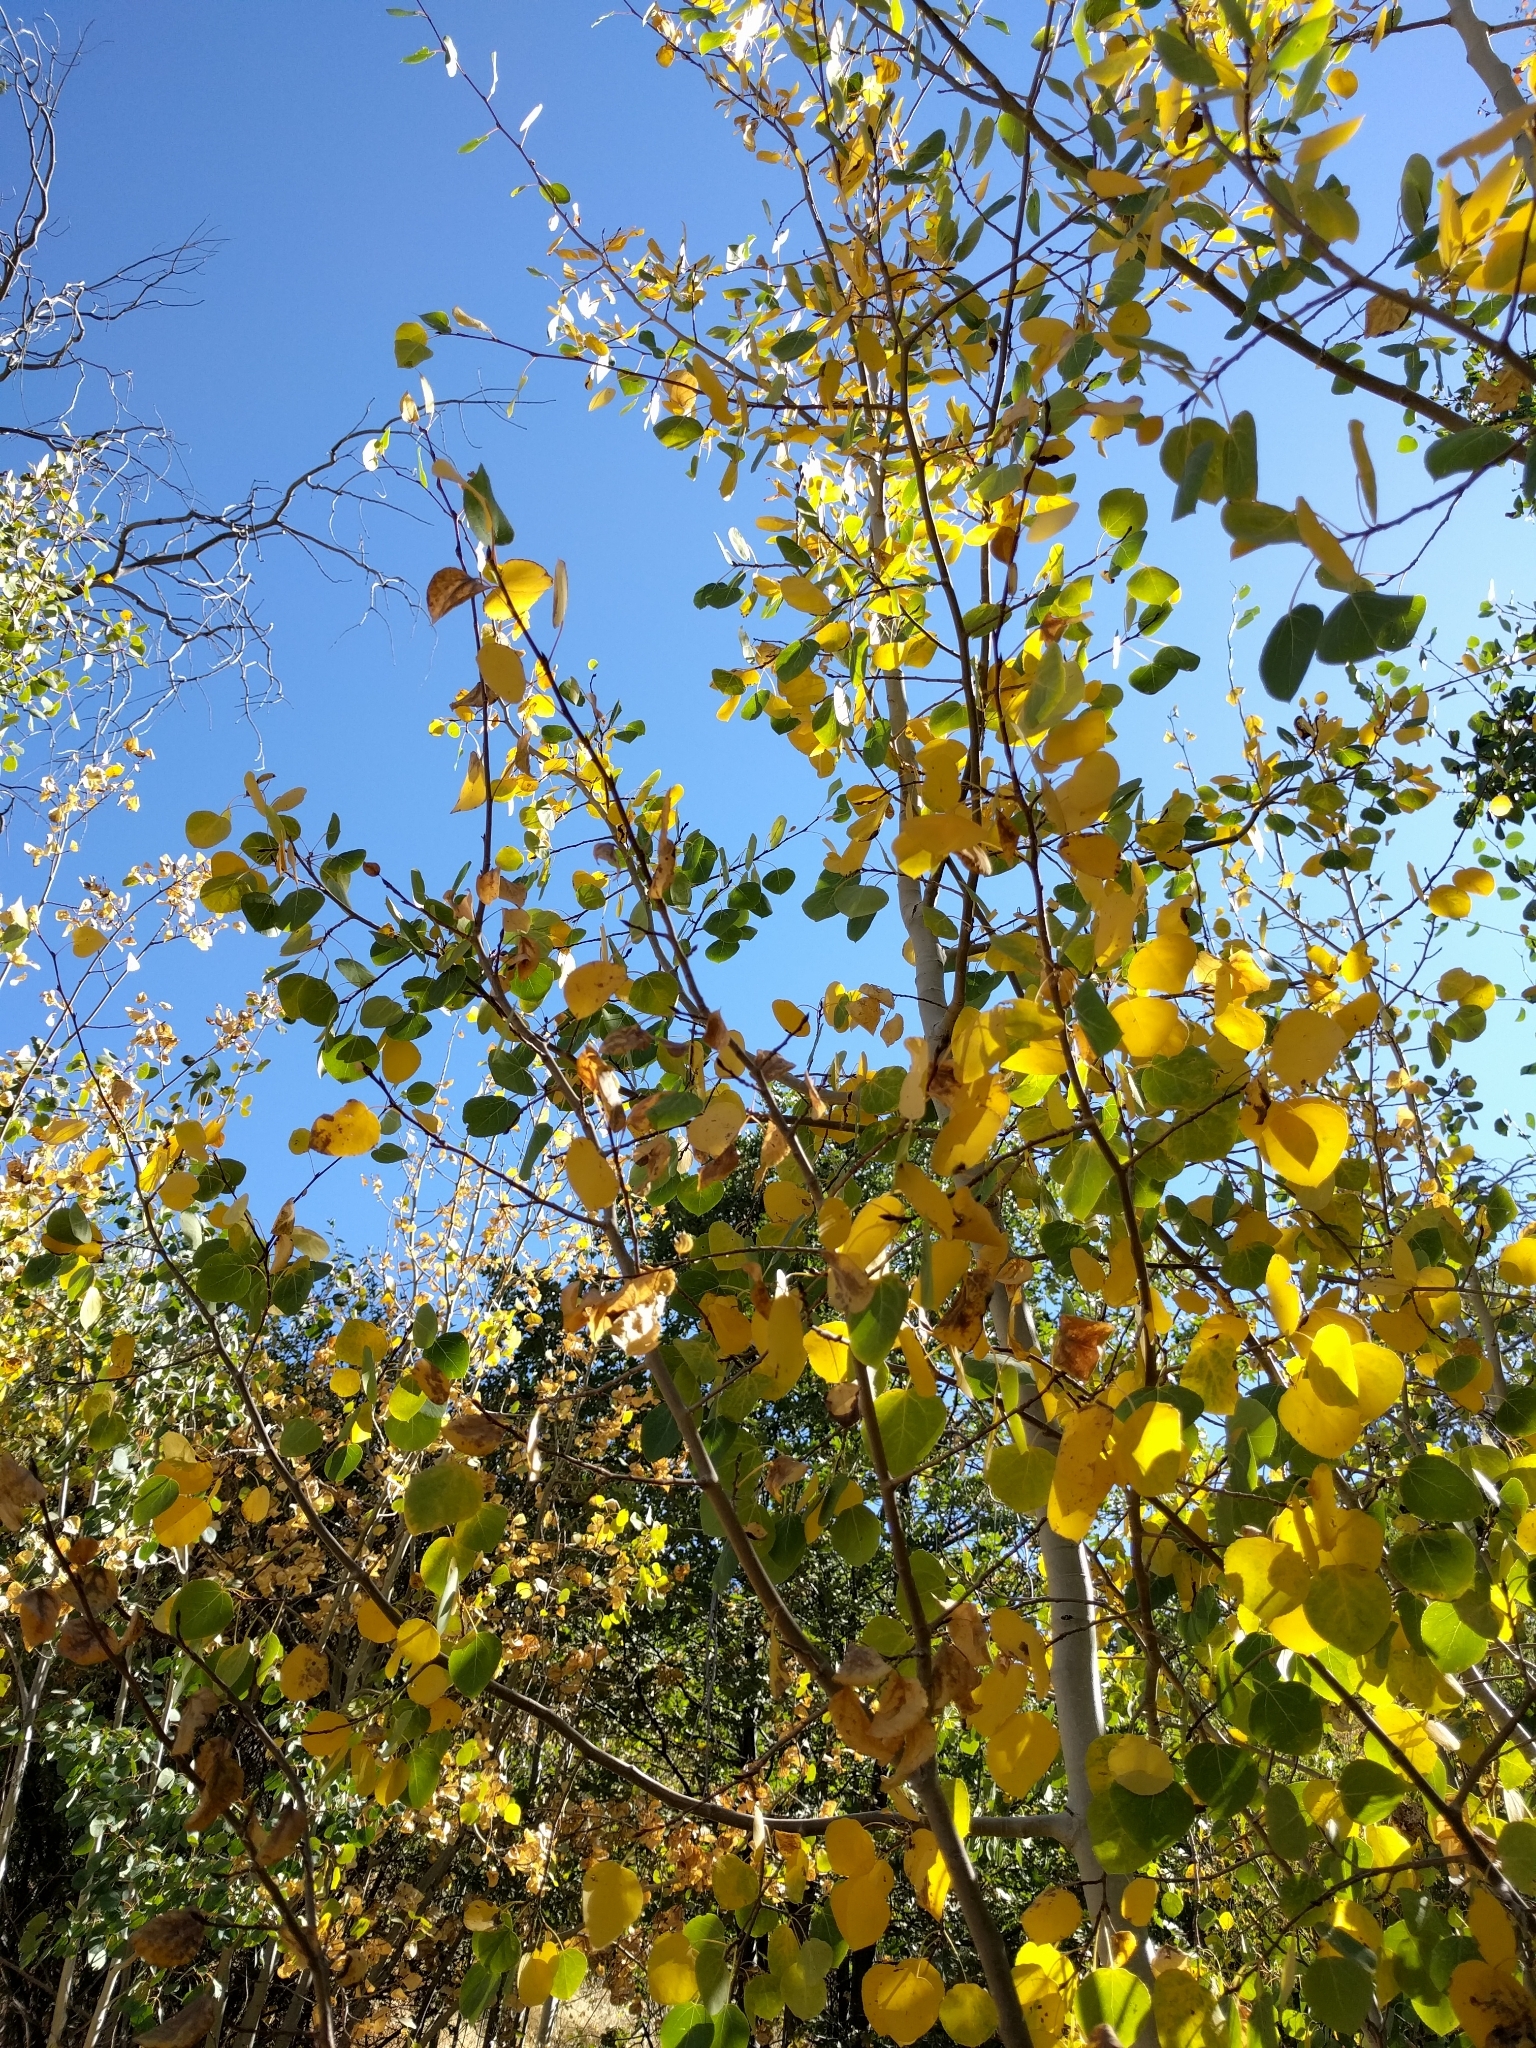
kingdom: Plantae
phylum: Tracheophyta
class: Magnoliopsida
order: Malpighiales
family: Salicaceae
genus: Populus
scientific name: Populus tremuloides
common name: Quaking aspen
